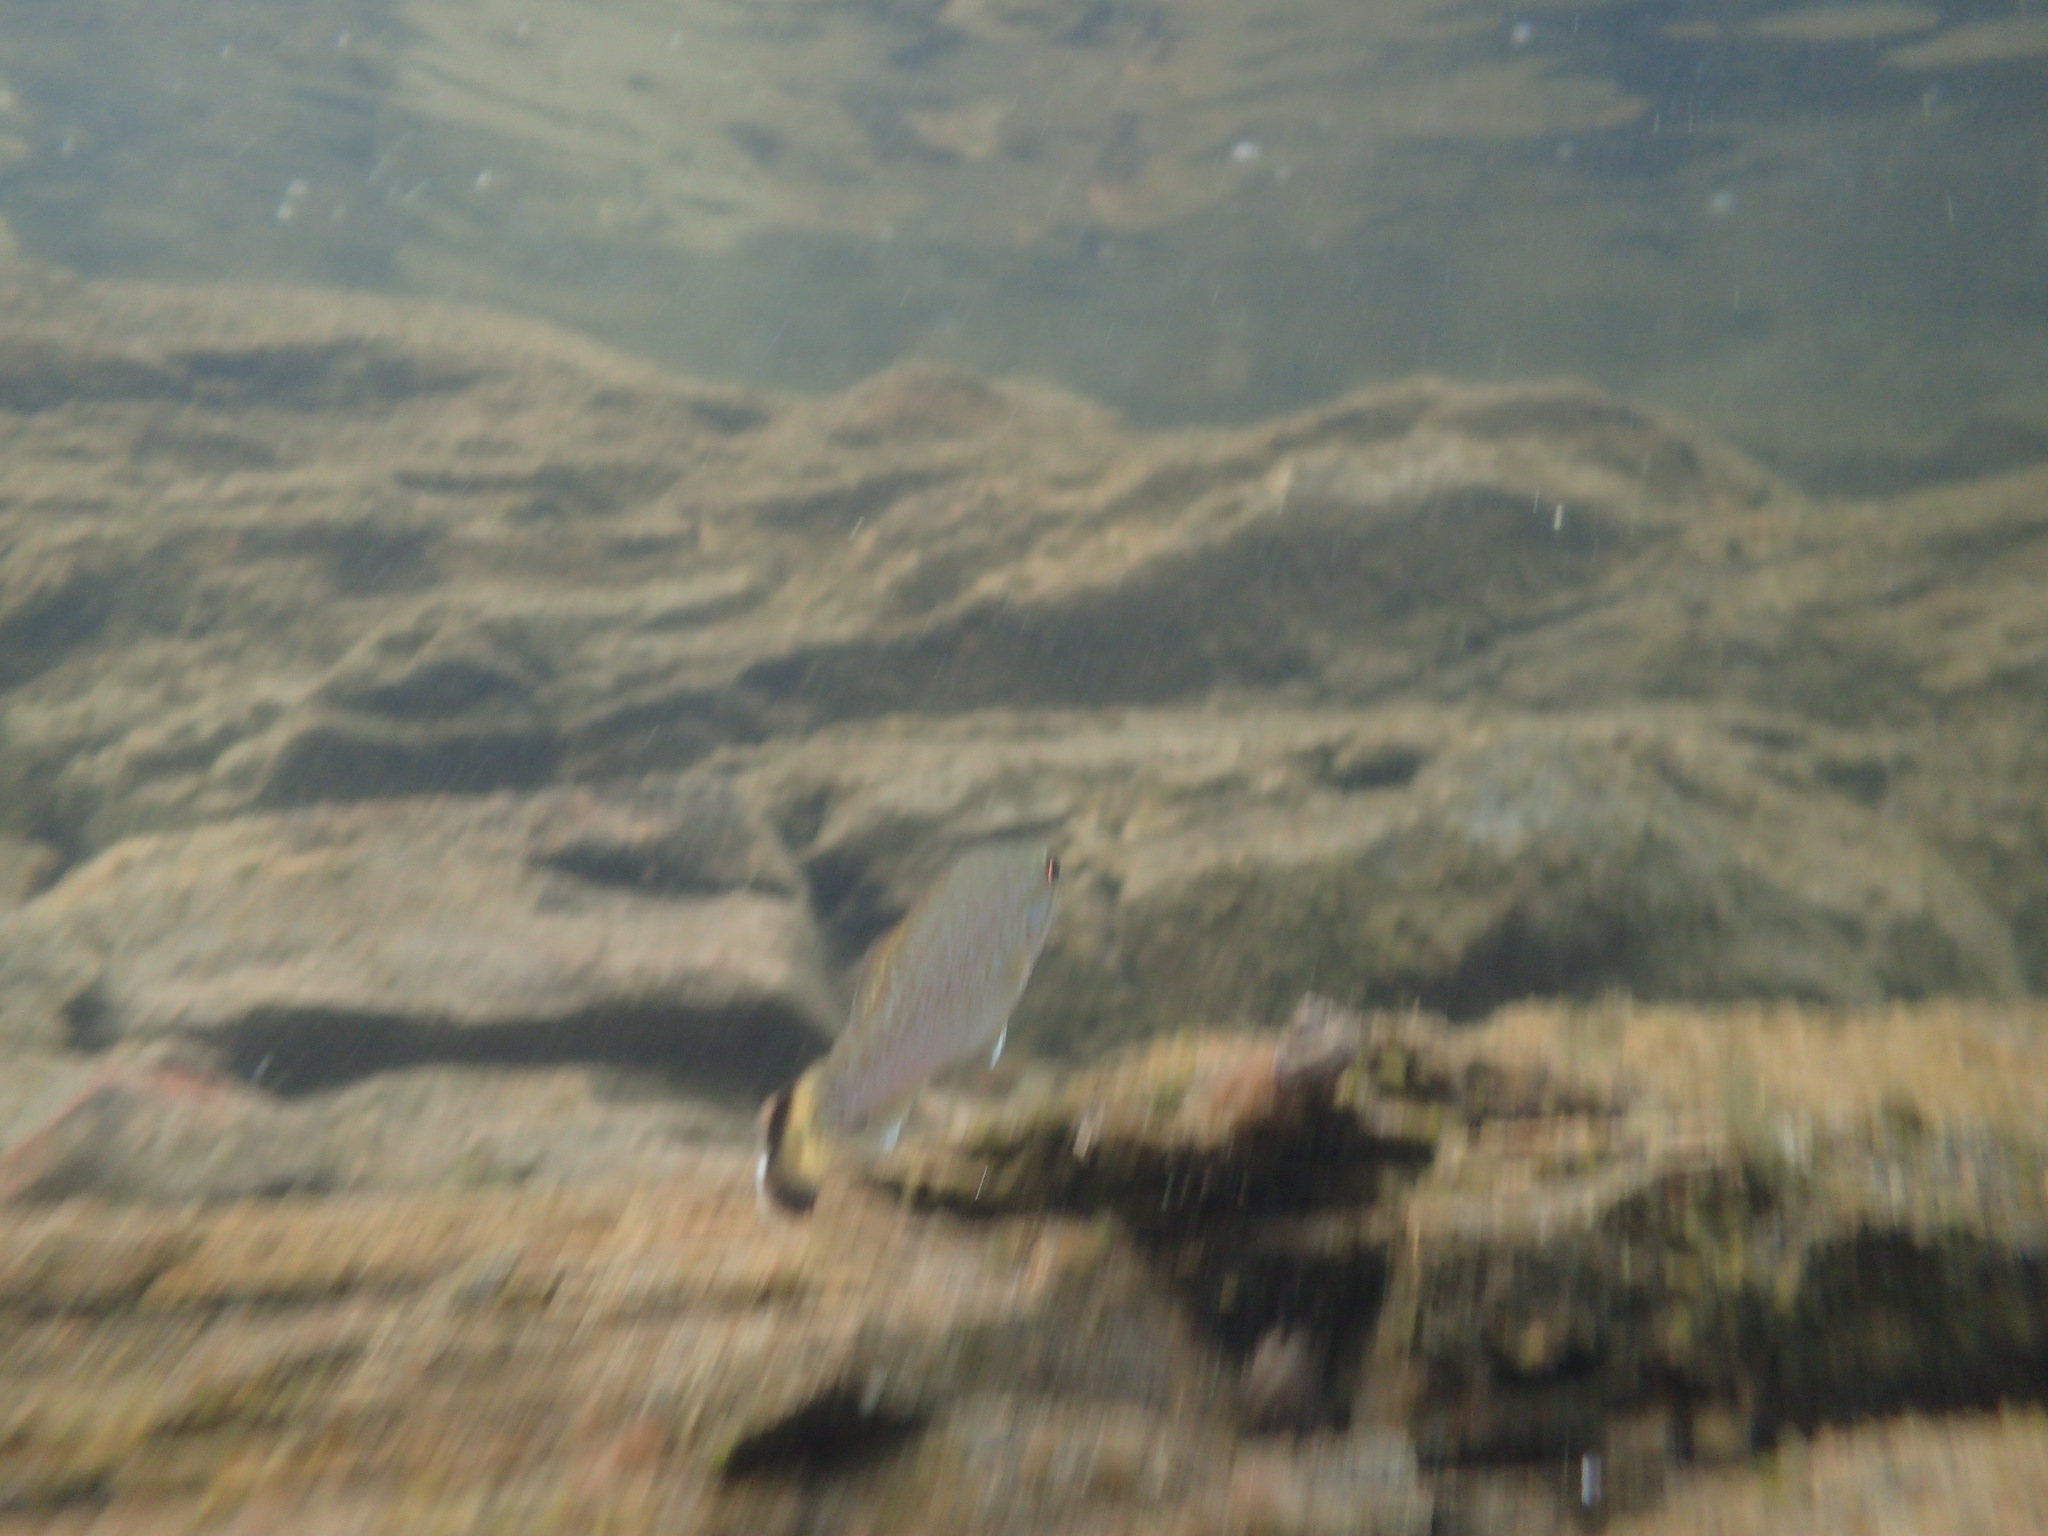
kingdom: Animalia
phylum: Chordata
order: Perciformes
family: Centrarchidae
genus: Micropterus
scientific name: Micropterus dolomieu
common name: Smallmouth bass
